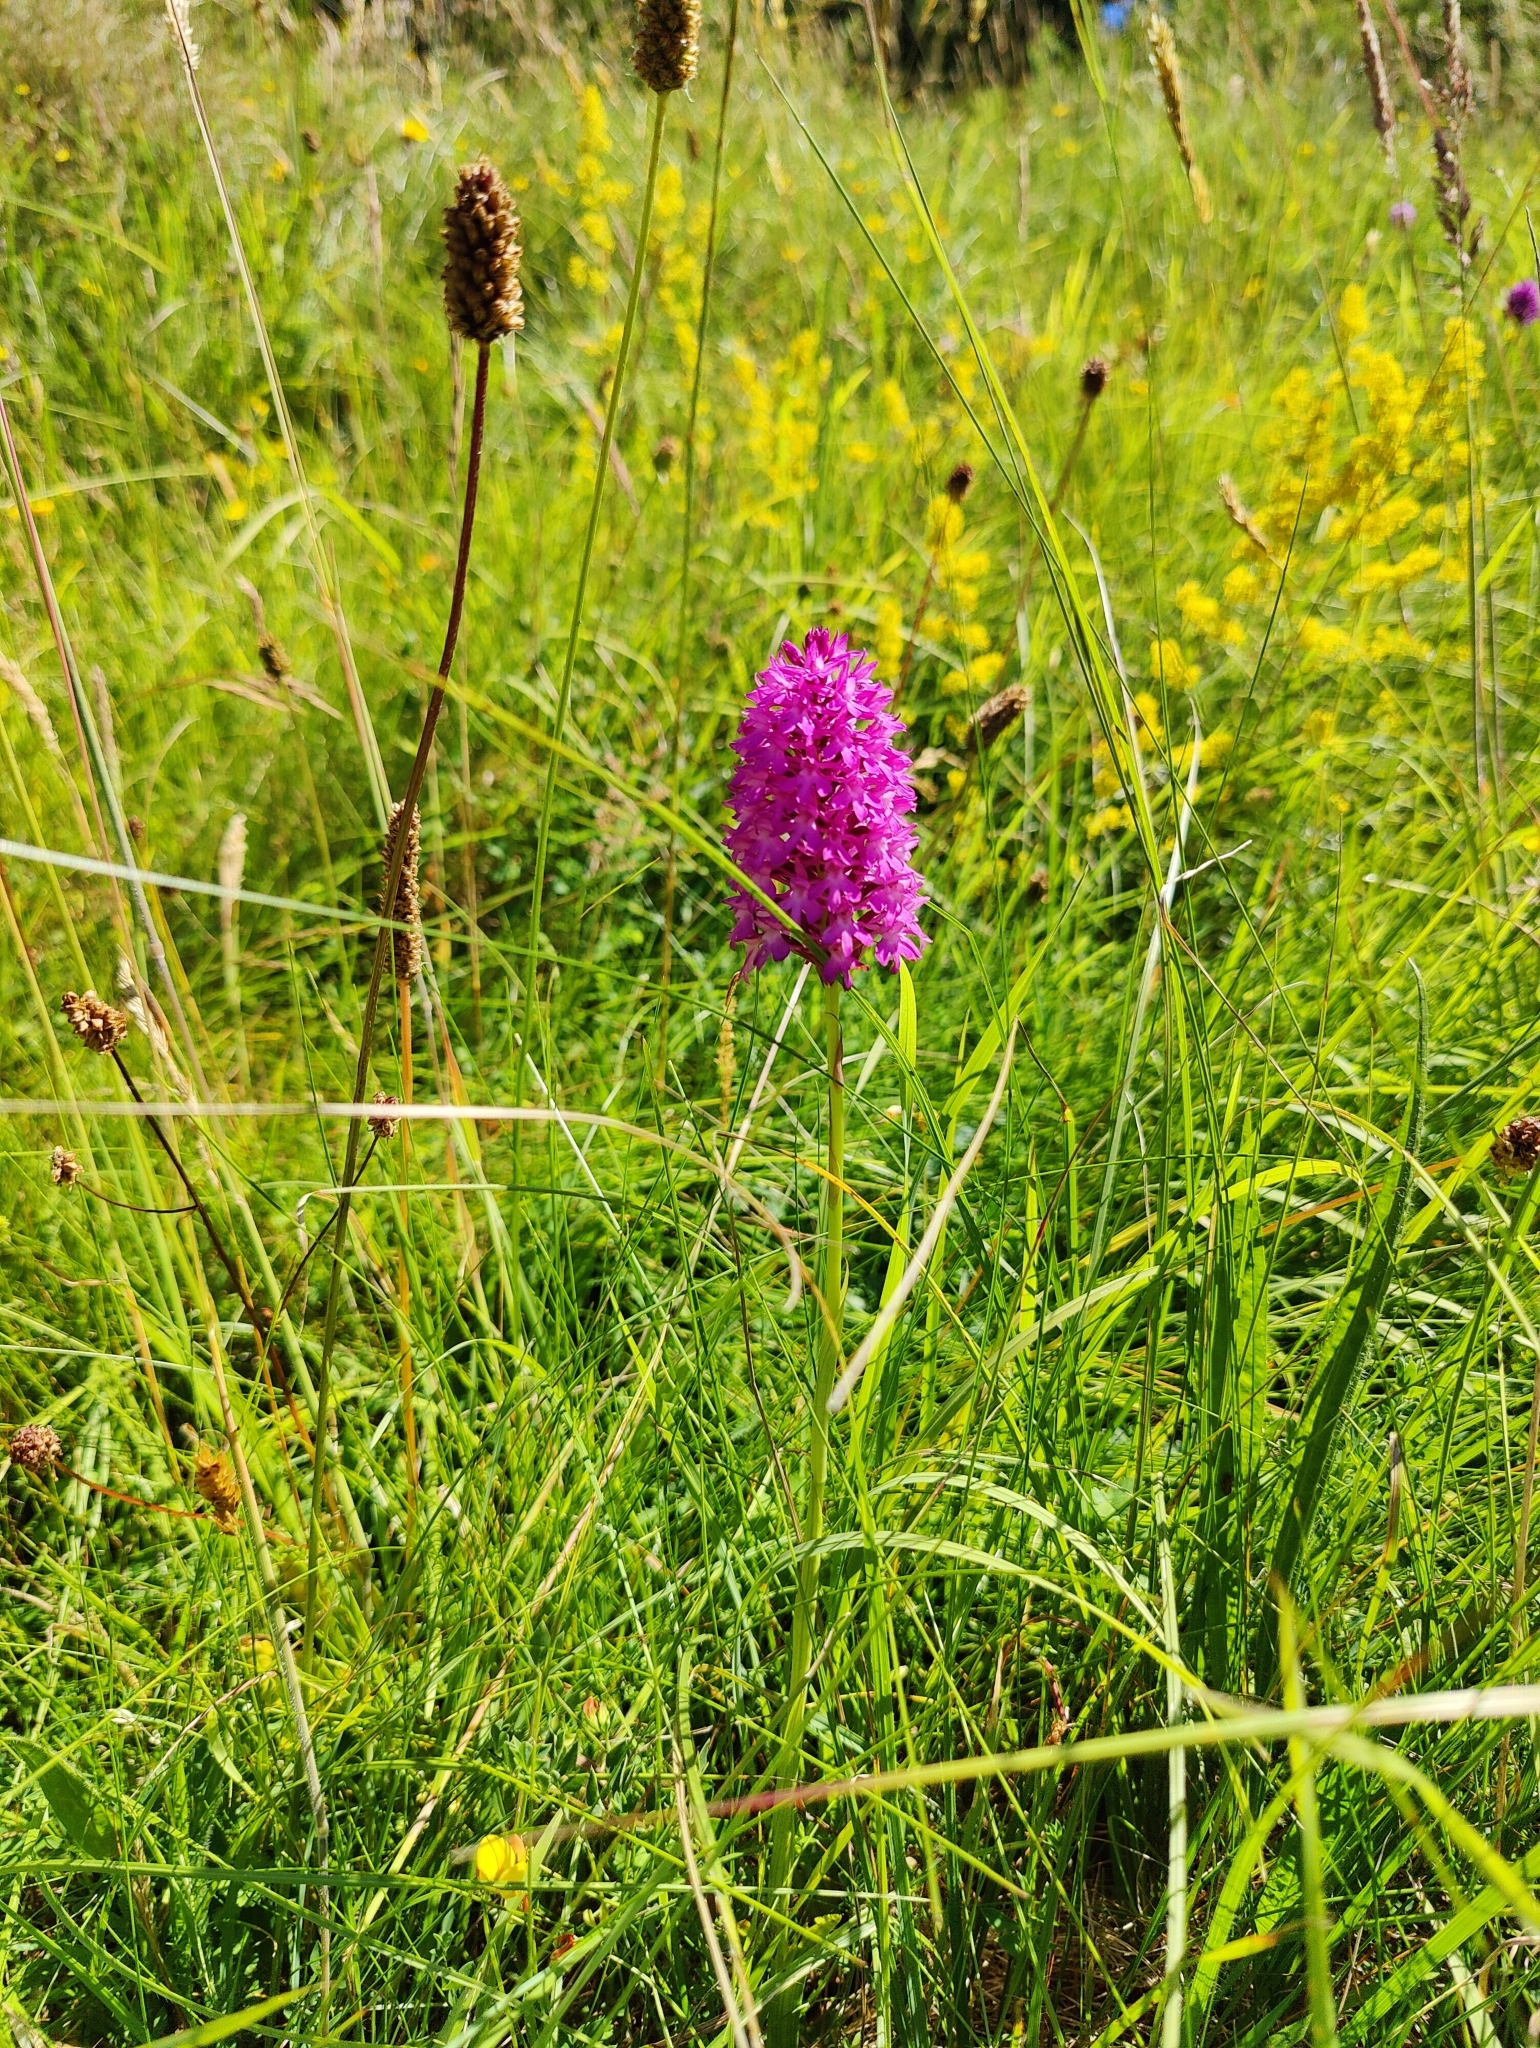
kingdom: Plantae
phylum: Tracheophyta
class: Liliopsida
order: Asparagales
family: Orchidaceae
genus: Anacamptis
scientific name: Anacamptis pyramidalis
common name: Pyramidal orchid
